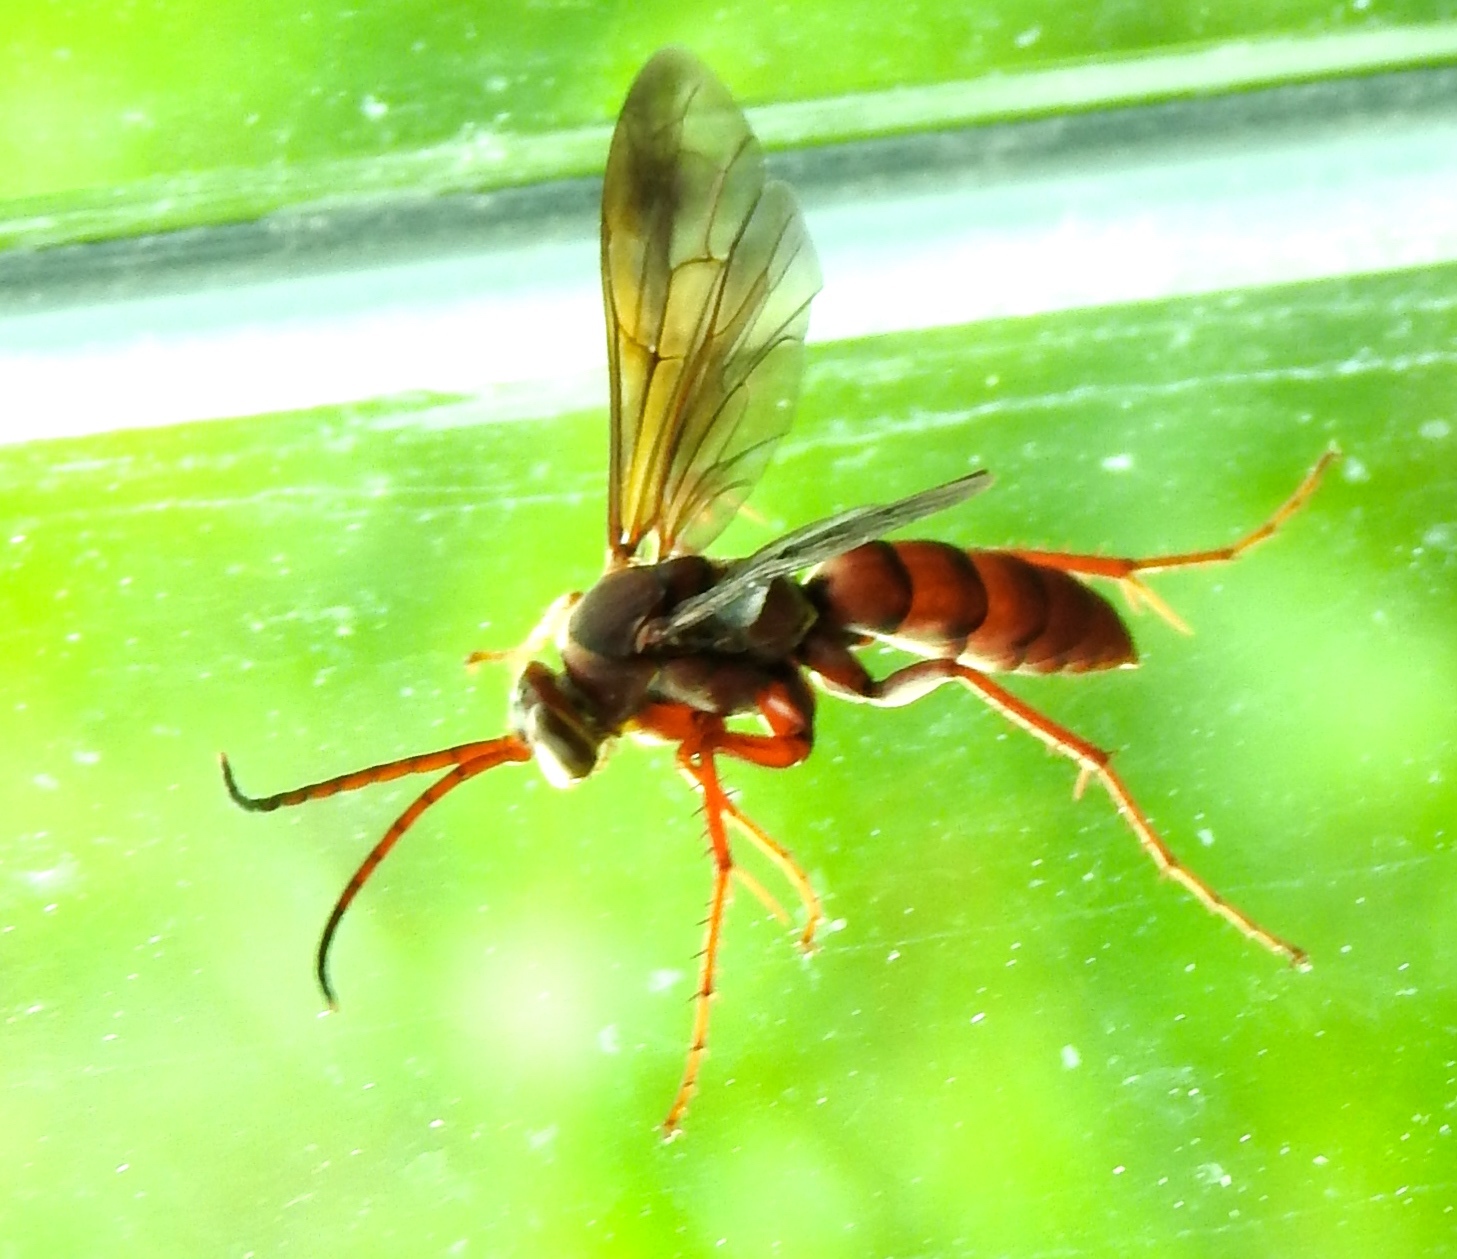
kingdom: Animalia
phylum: Arthropoda
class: Insecta
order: Hymenoptera
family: Pompilidae
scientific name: Pompilidae
